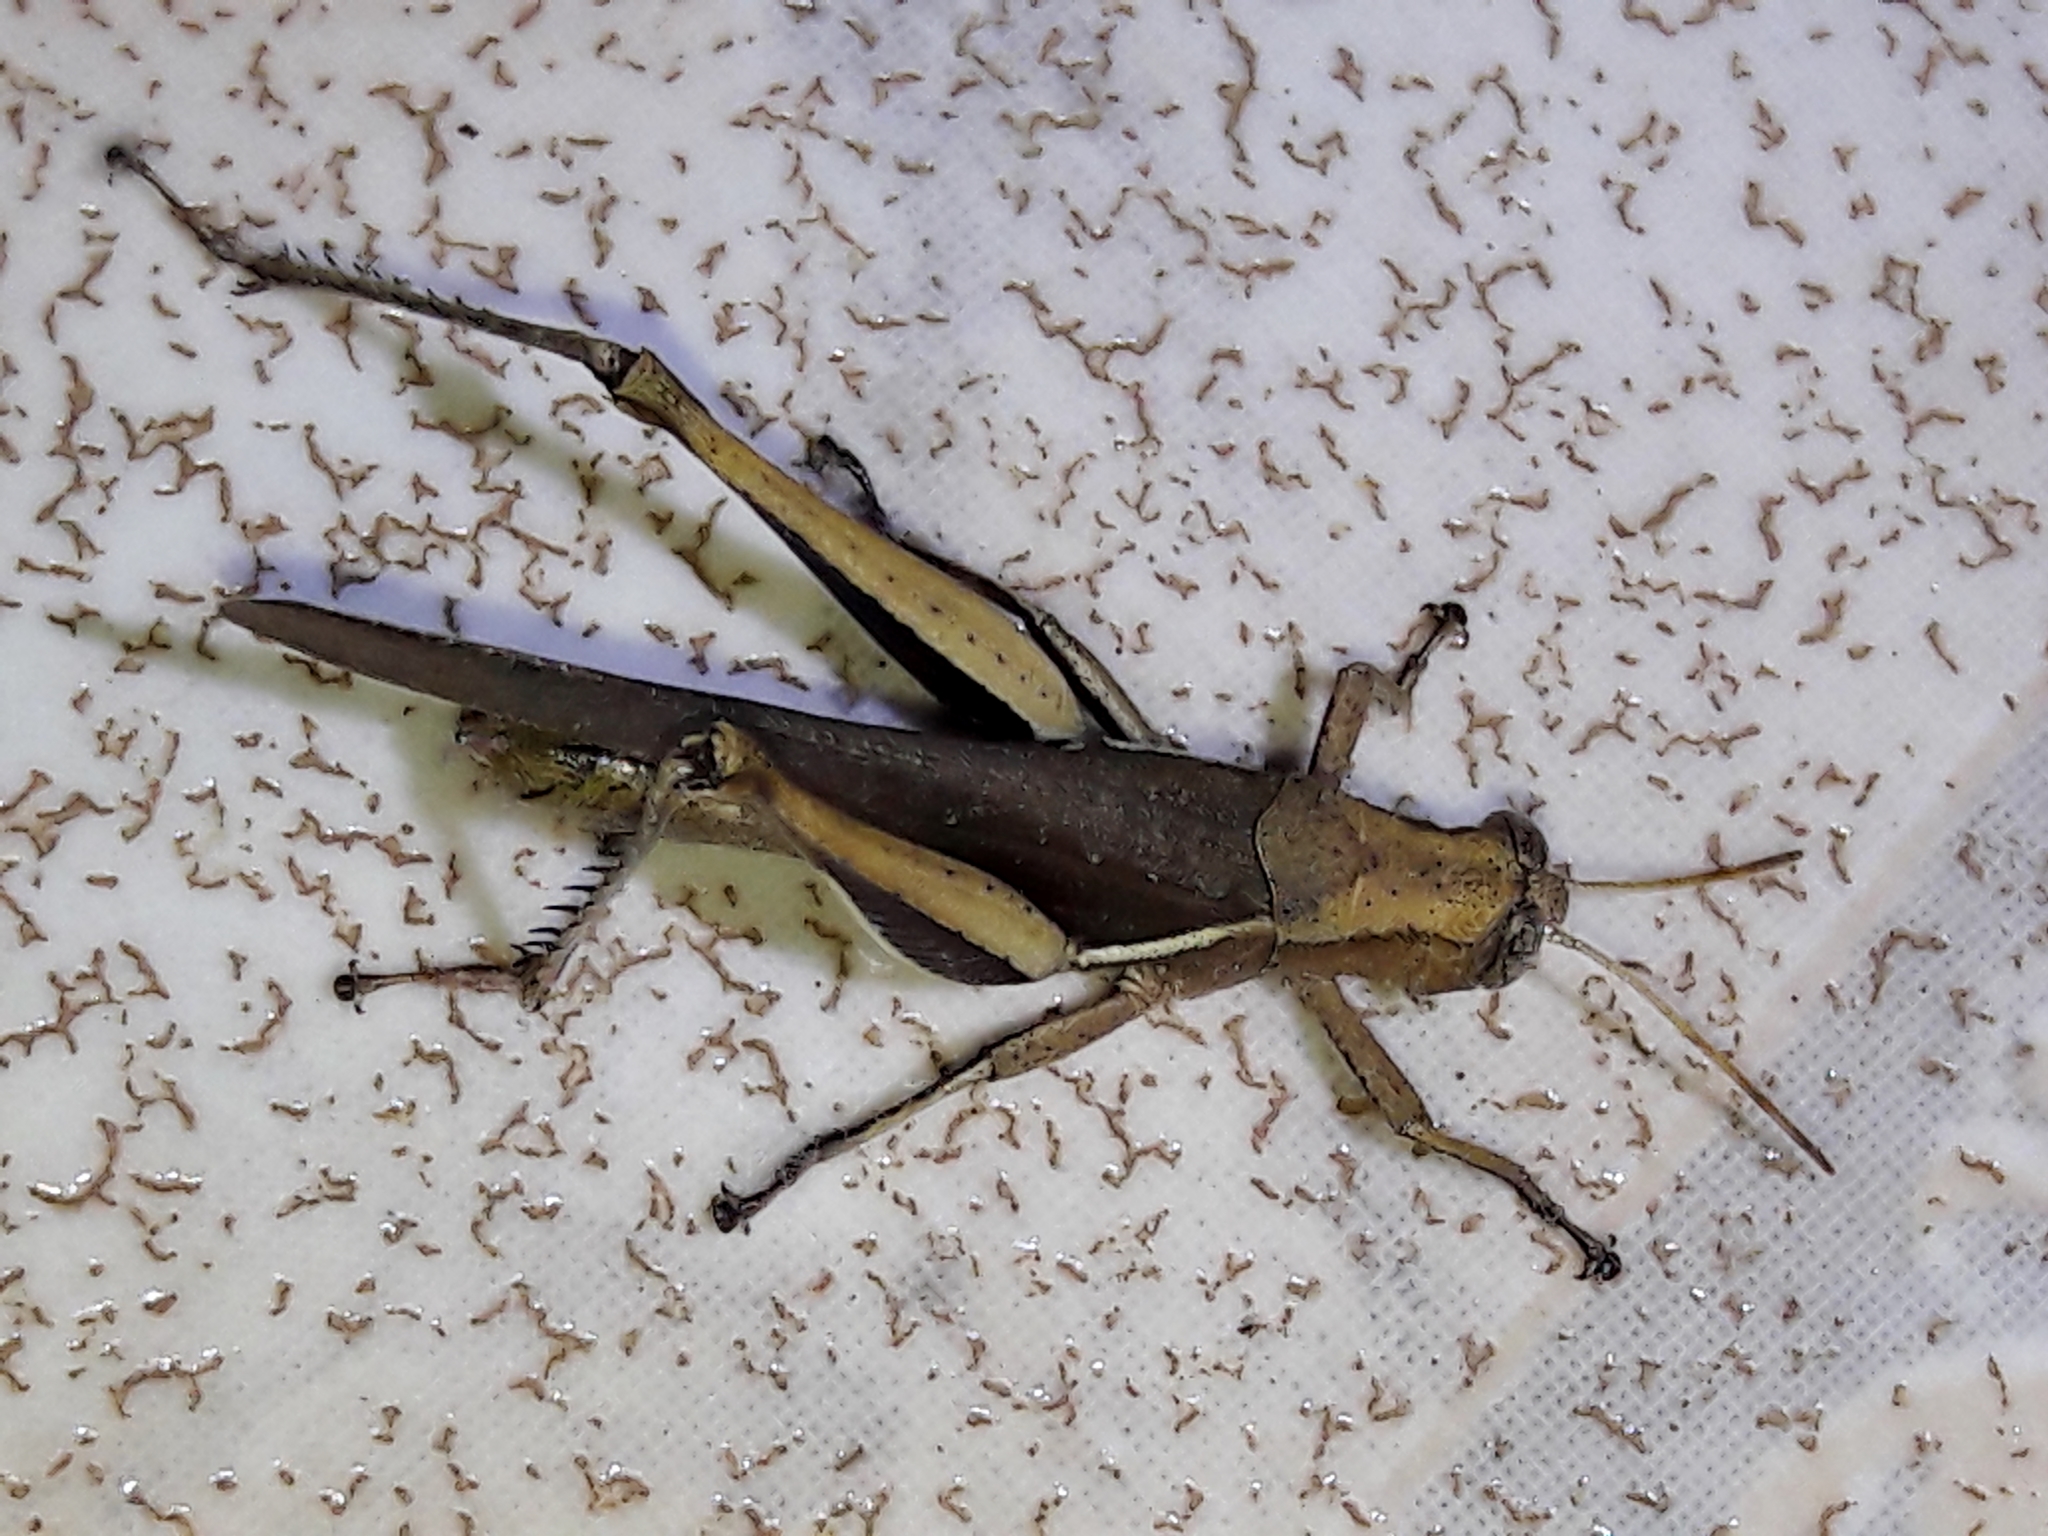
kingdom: Animalia
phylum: Arthropoda
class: Insecta
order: Orthoptera
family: Acrididae
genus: Abracris
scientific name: Abracris flavolineata
